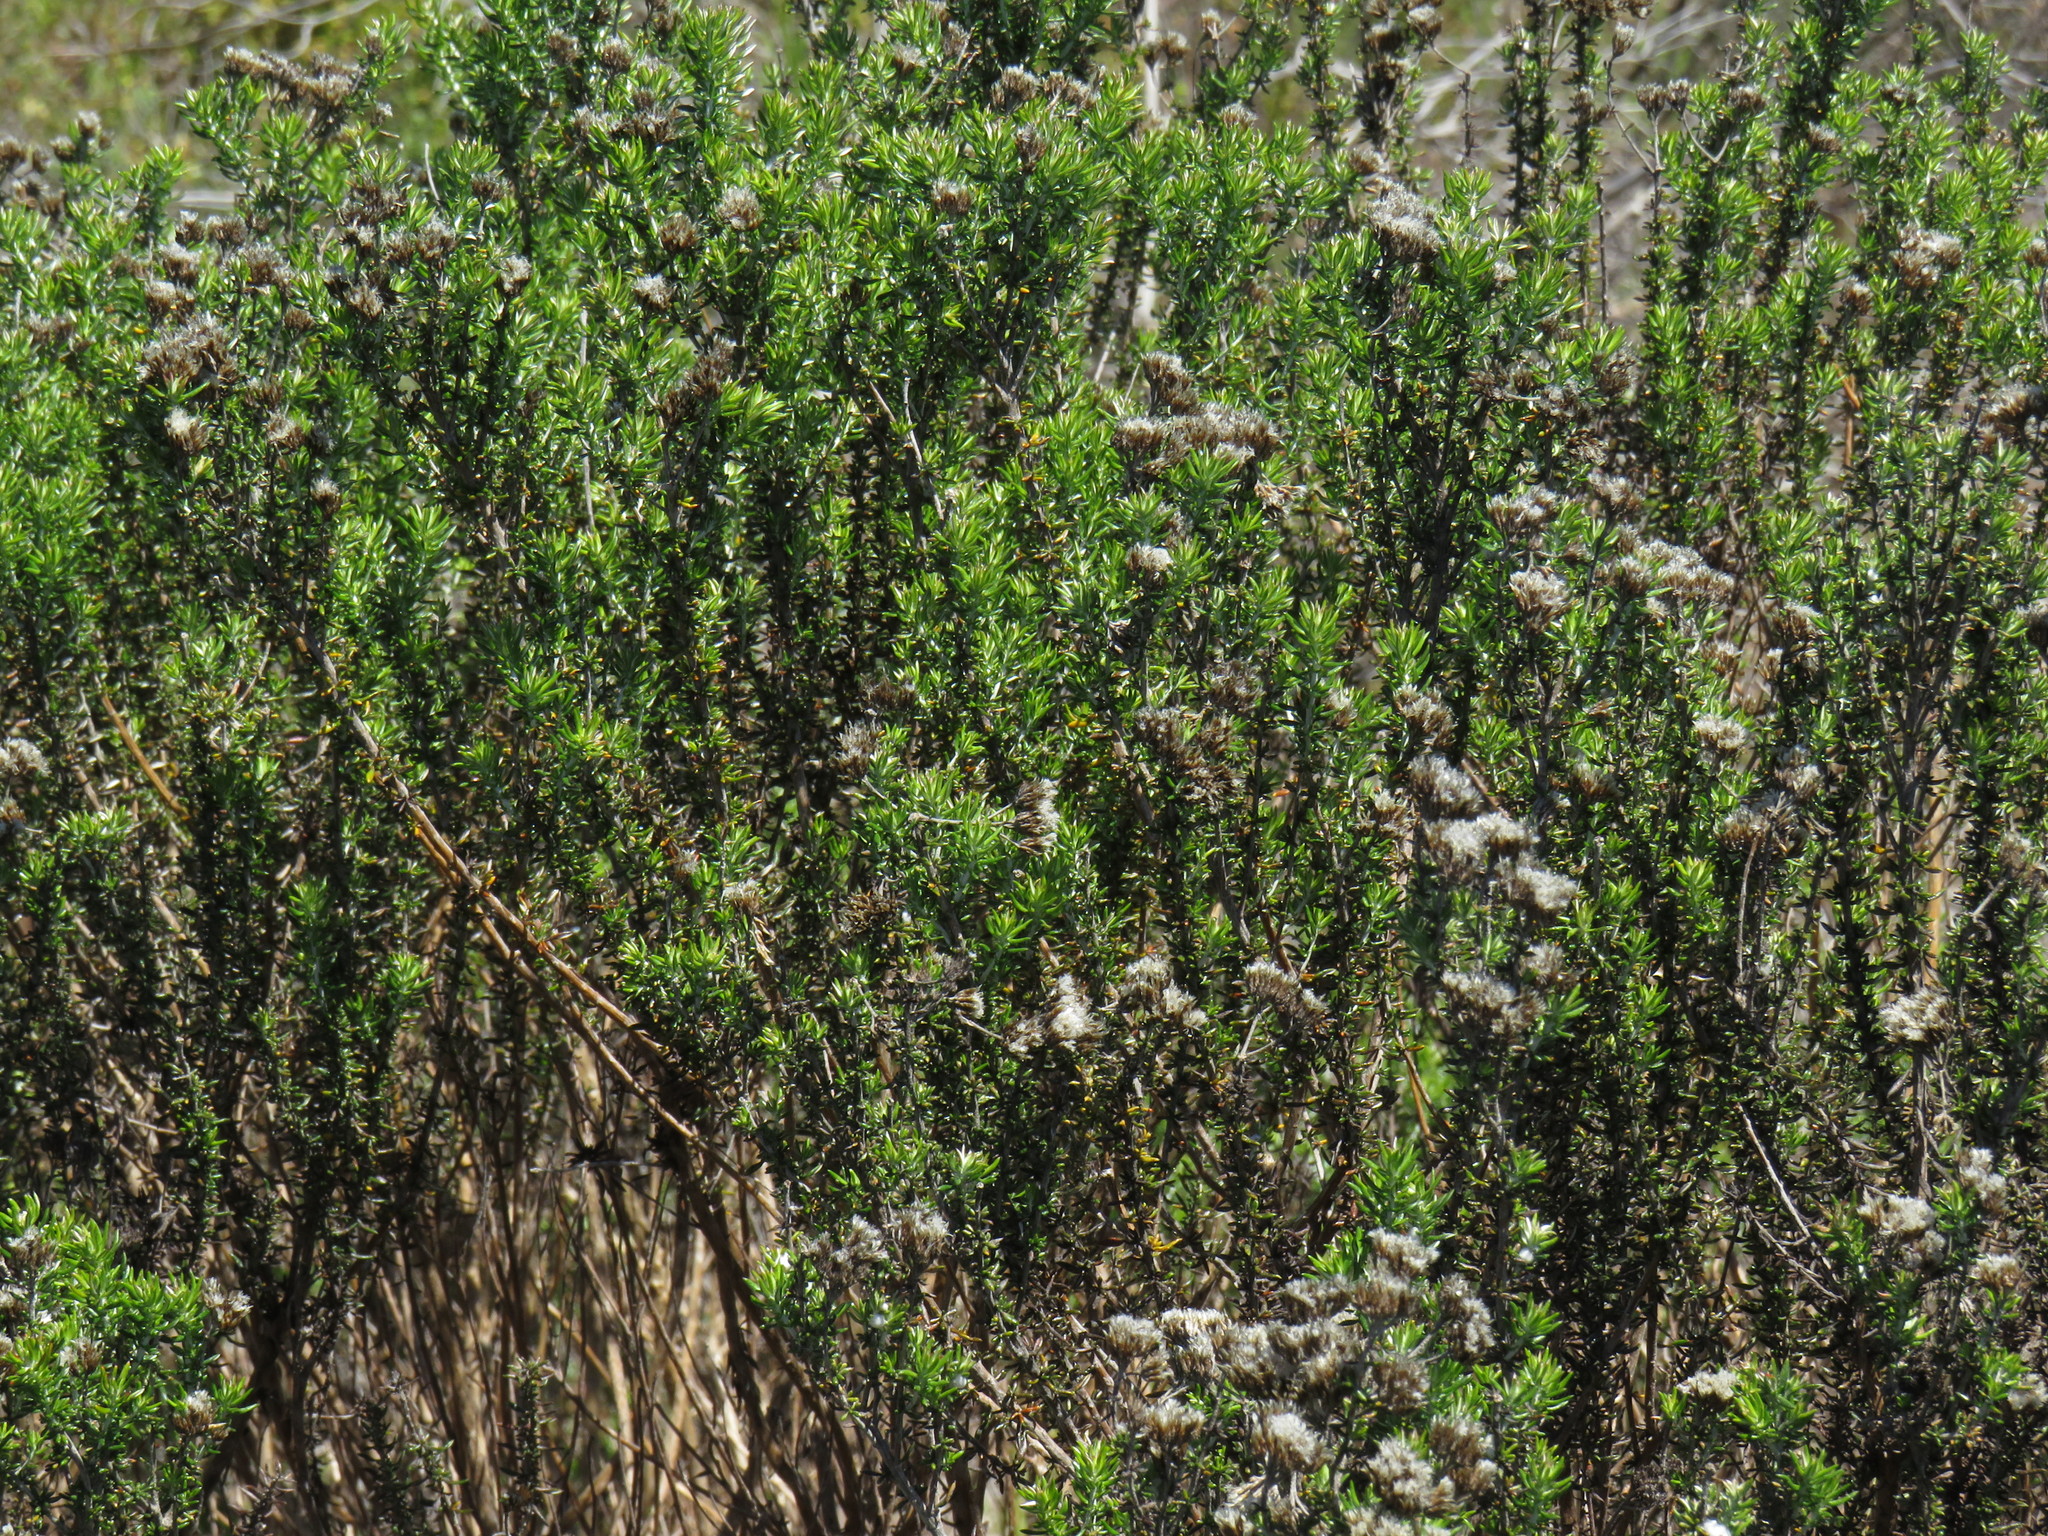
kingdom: Plantae
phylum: Tracheophyta
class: Magnoliopsida
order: Asterales
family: Asteraceae
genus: Metalasia
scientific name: Metalasia densa
